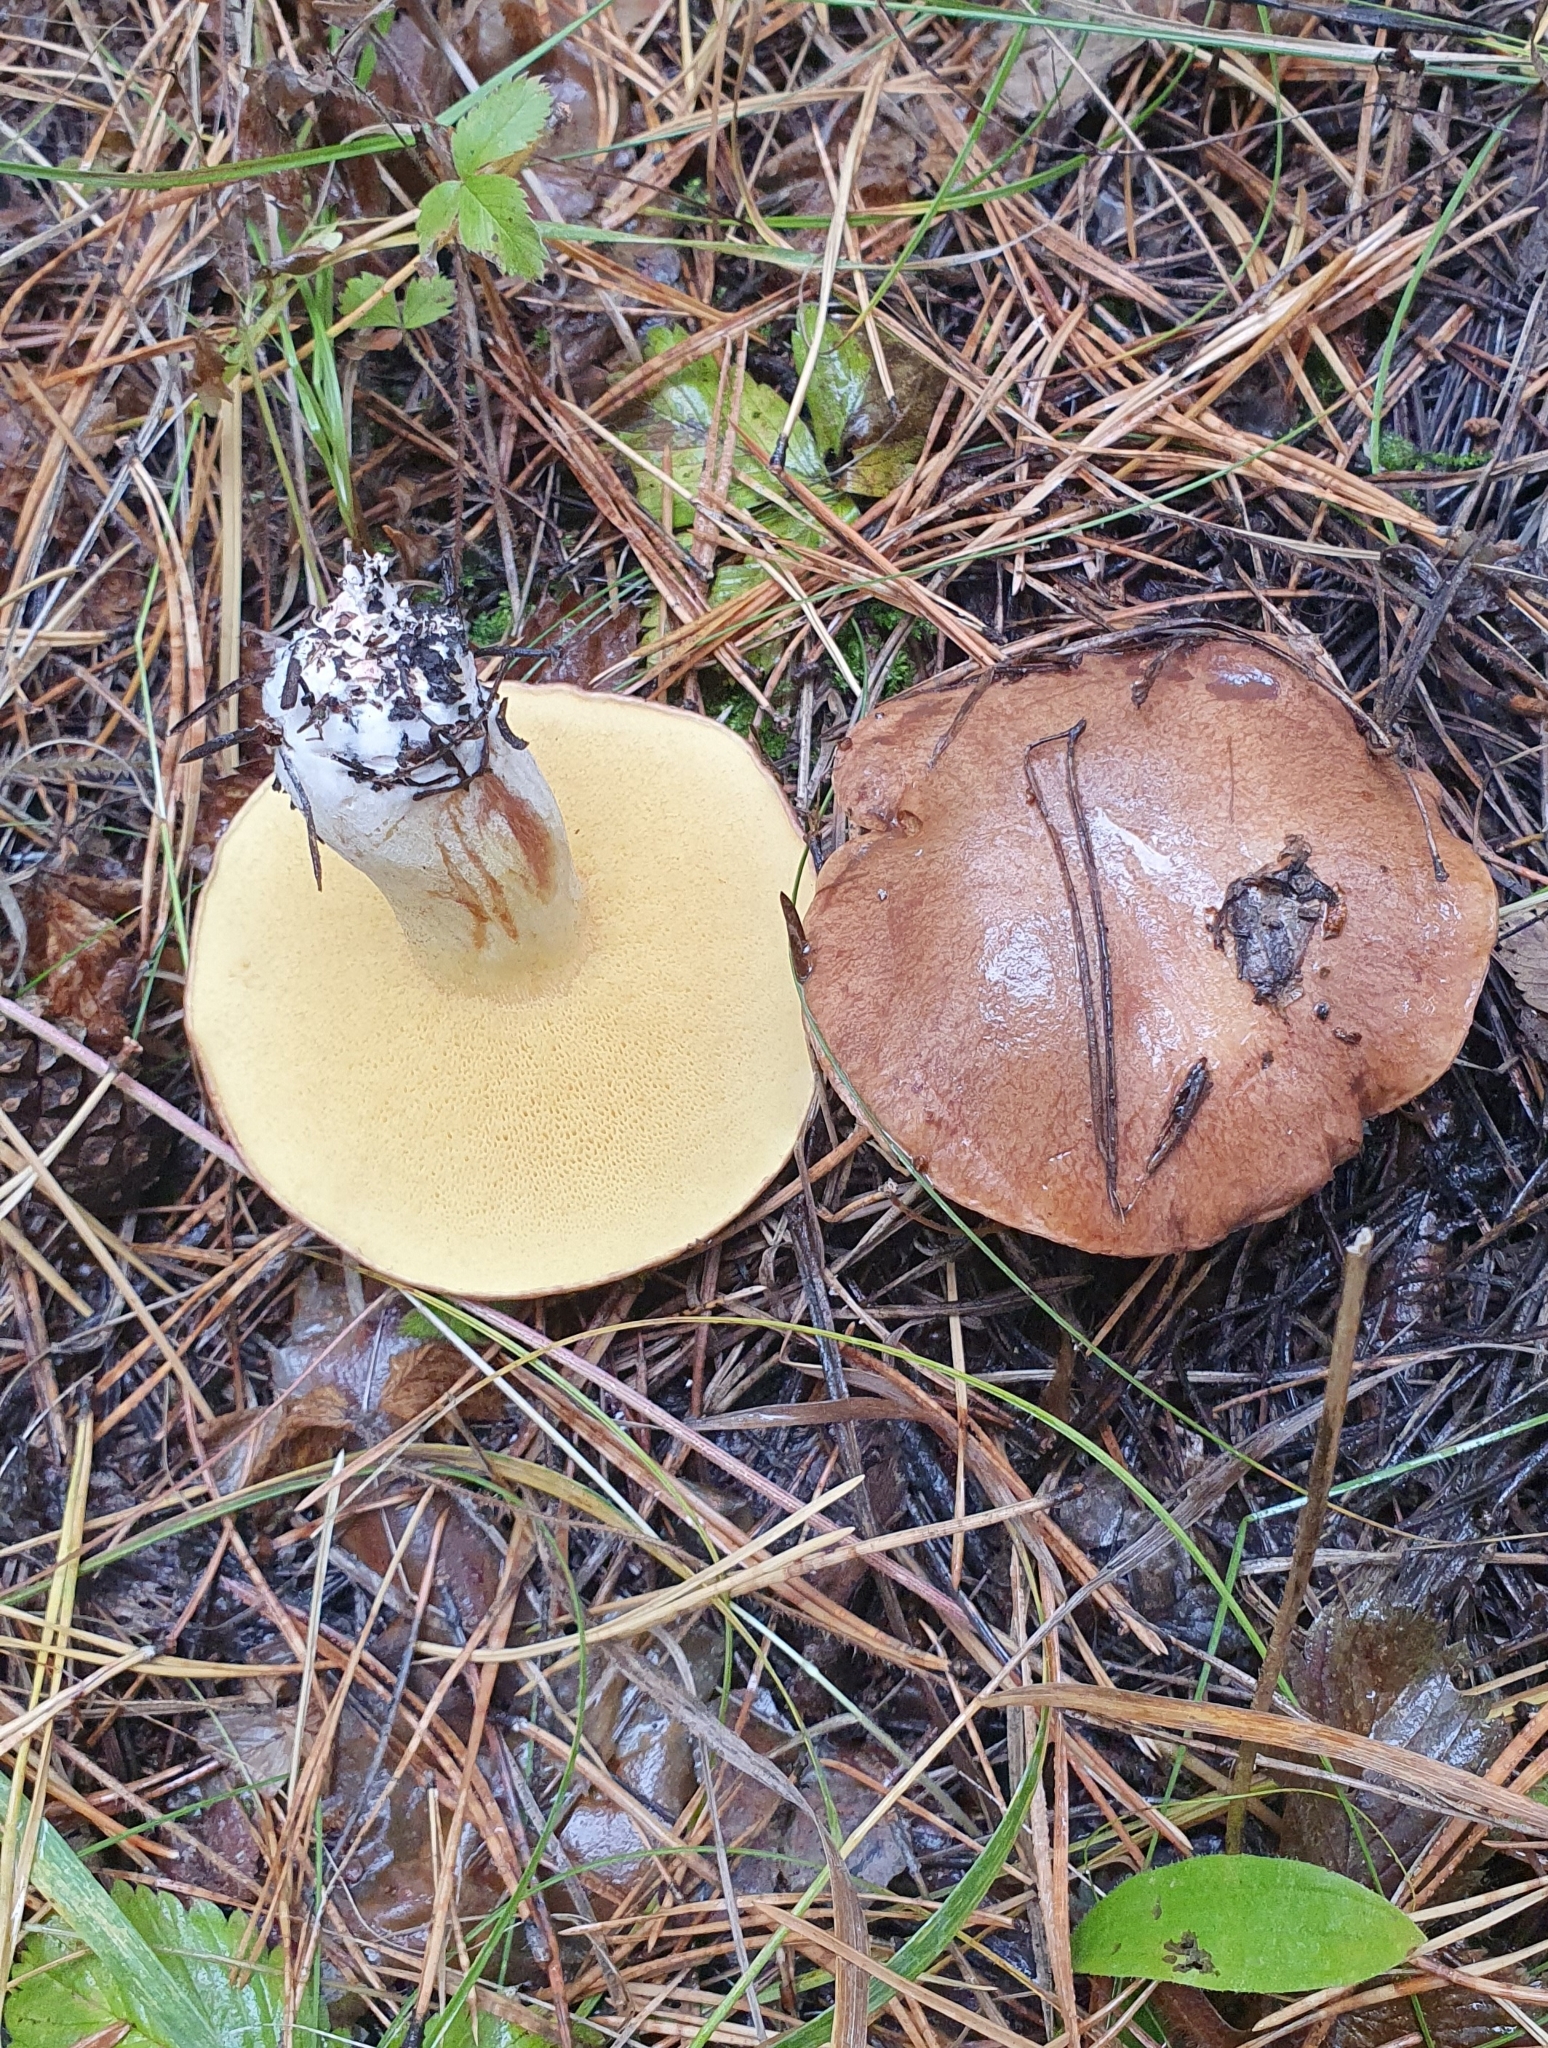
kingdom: Fungi
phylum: Basidiomycota
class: Agaricomycetes
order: Boletales
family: Suillaceae
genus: Suillus
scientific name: Suillus granulatus
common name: Weeping bolete
